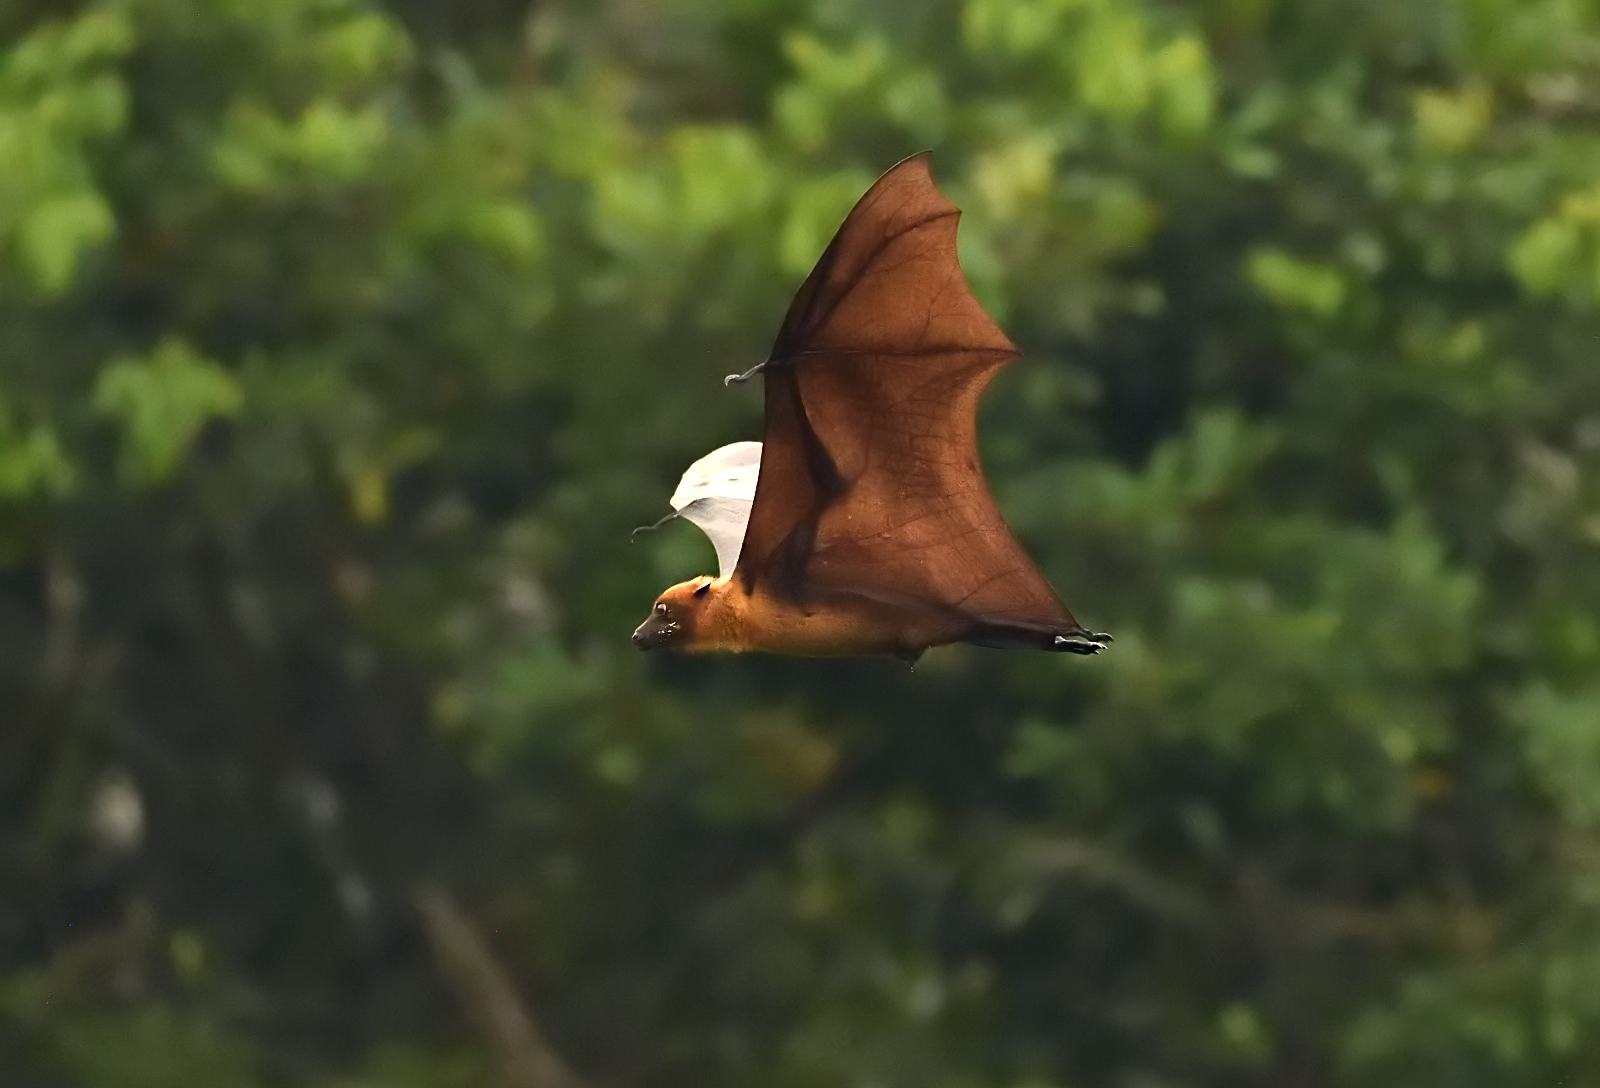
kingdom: Animalia
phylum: Chordata
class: Mammalia
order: Chiroptera
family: Pteropodidae
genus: Pteropus
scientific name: Pteropus vampyrus
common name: Large flying fox
